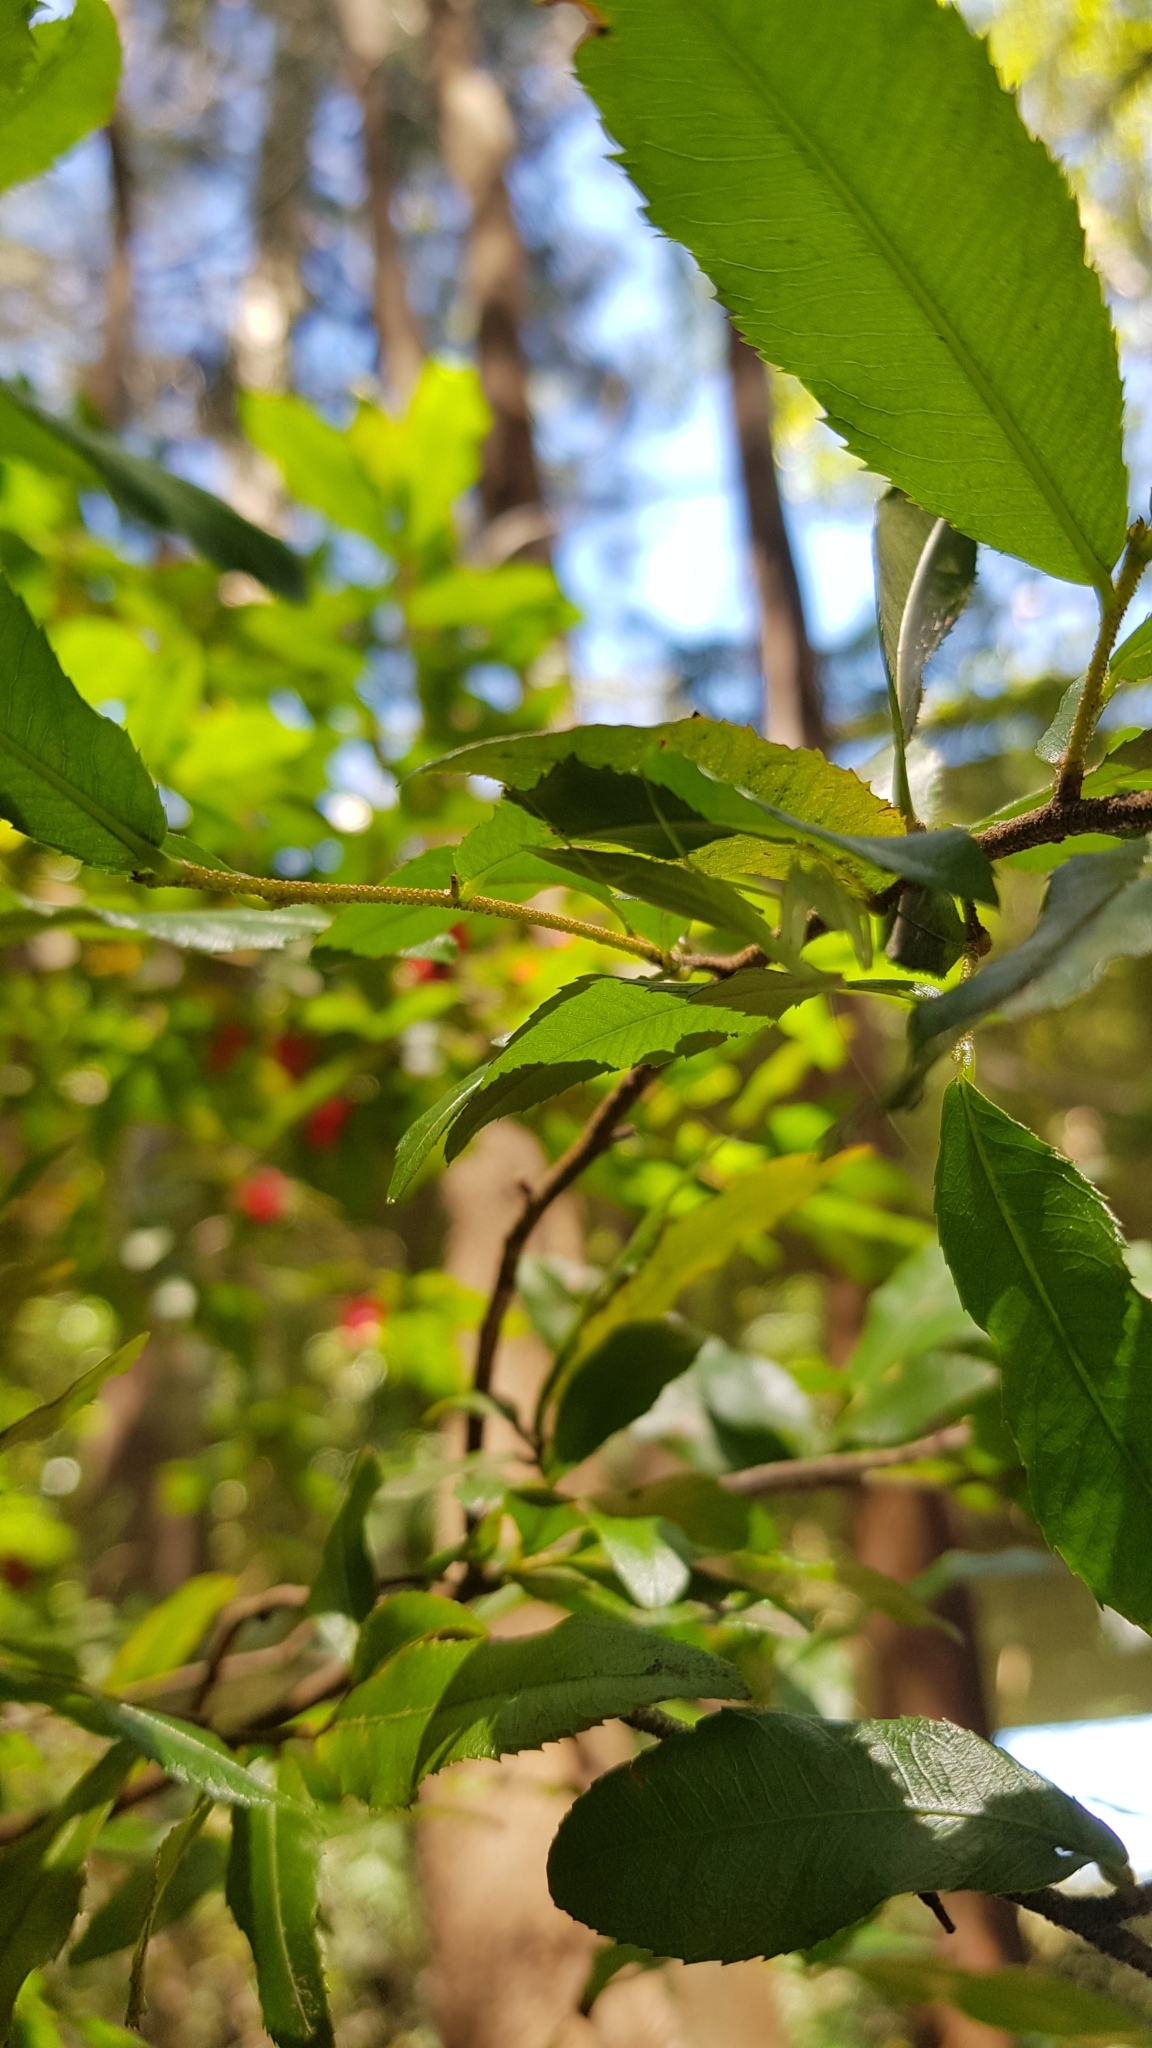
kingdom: Animalia
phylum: Arthropoda
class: Insecta
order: Mantodea
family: Nanomantidae
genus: Kongobatha
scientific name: Kongobatha diademata
